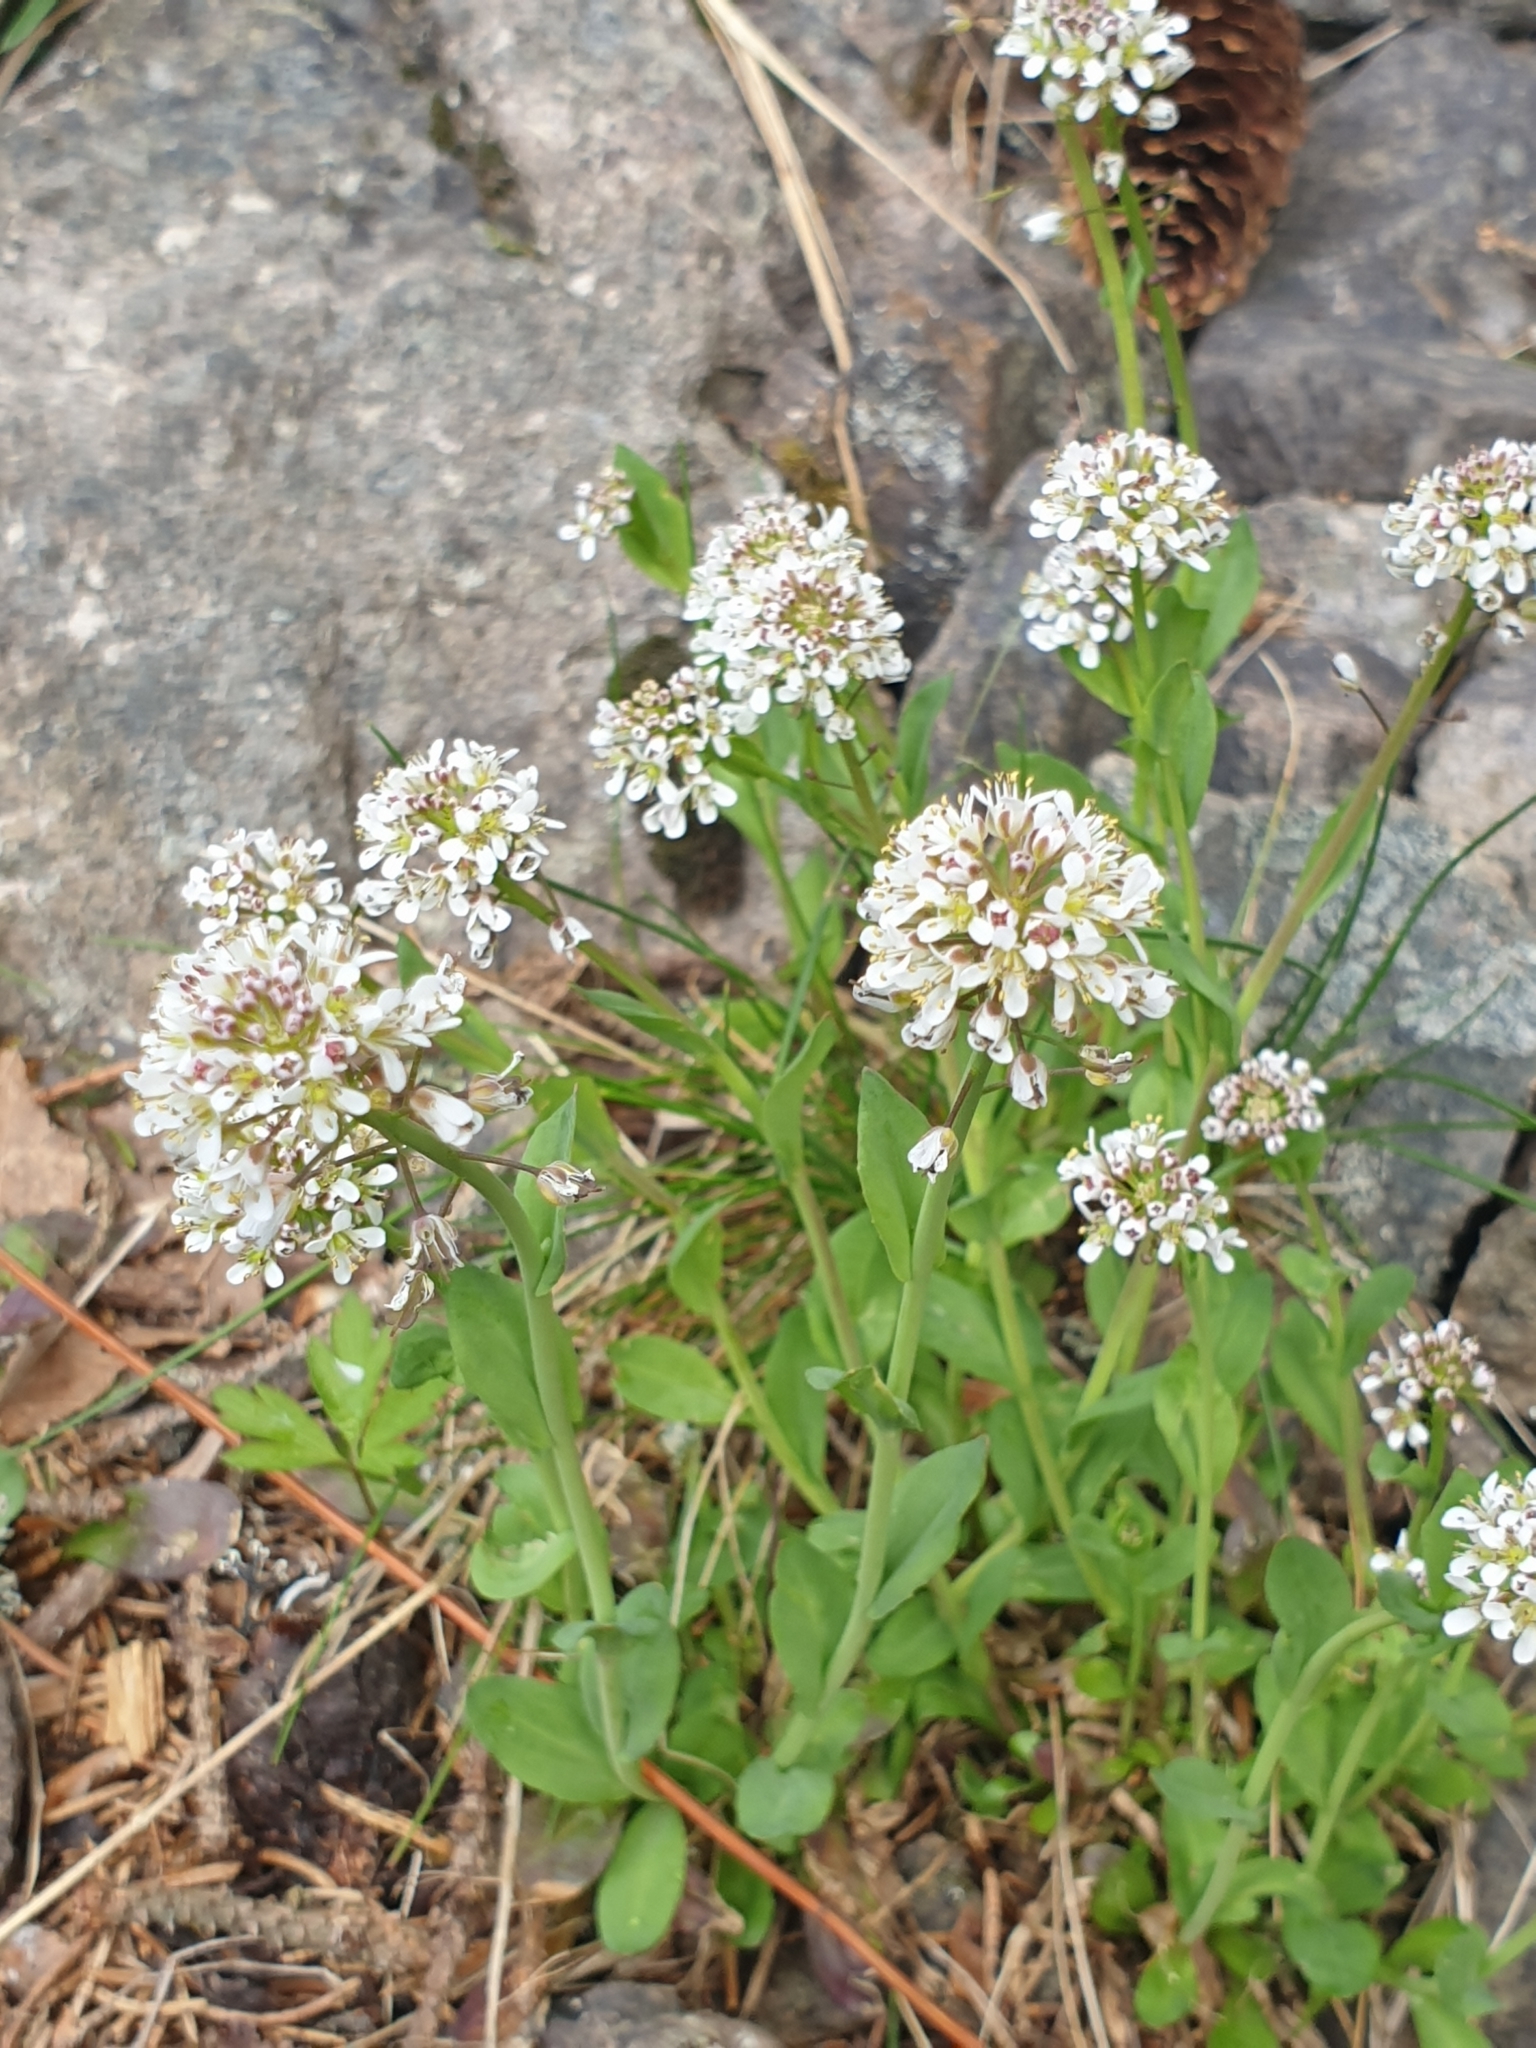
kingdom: Plantae
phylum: Tracheophyta
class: Magnoliopsida
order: Brassicales
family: Brassicaceae
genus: Noccaea
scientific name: Noccaea caerulescens
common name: Alpine pennycress
